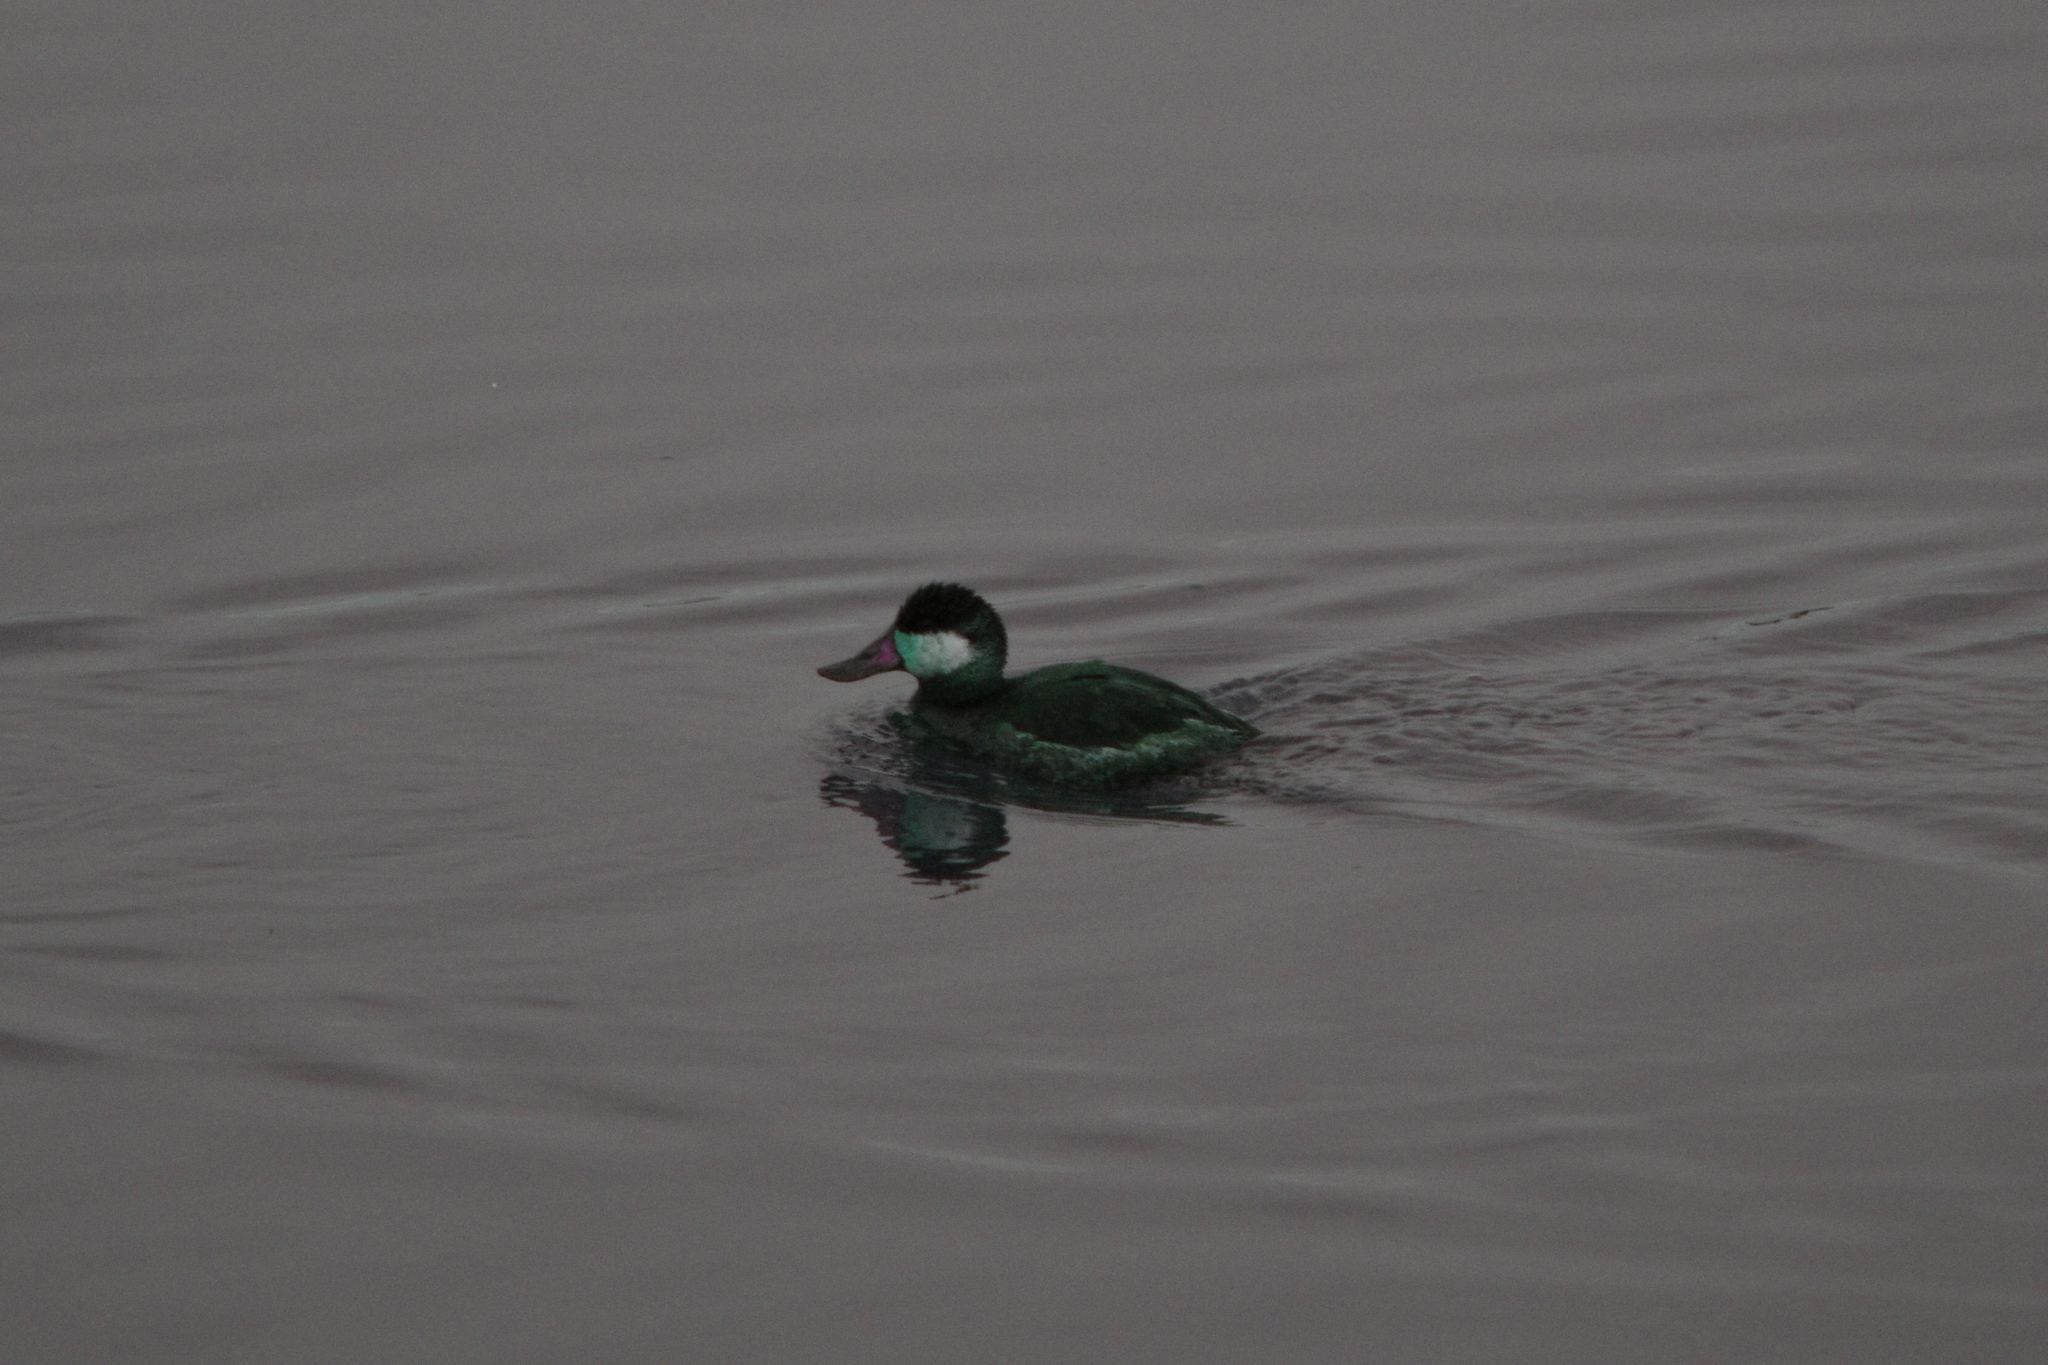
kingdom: Animalia
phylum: Chordata
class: Aves
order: Anseriformes
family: Anatidae
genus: Oxyura
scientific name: Oxyura jamaicensis
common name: Ruddy duck
